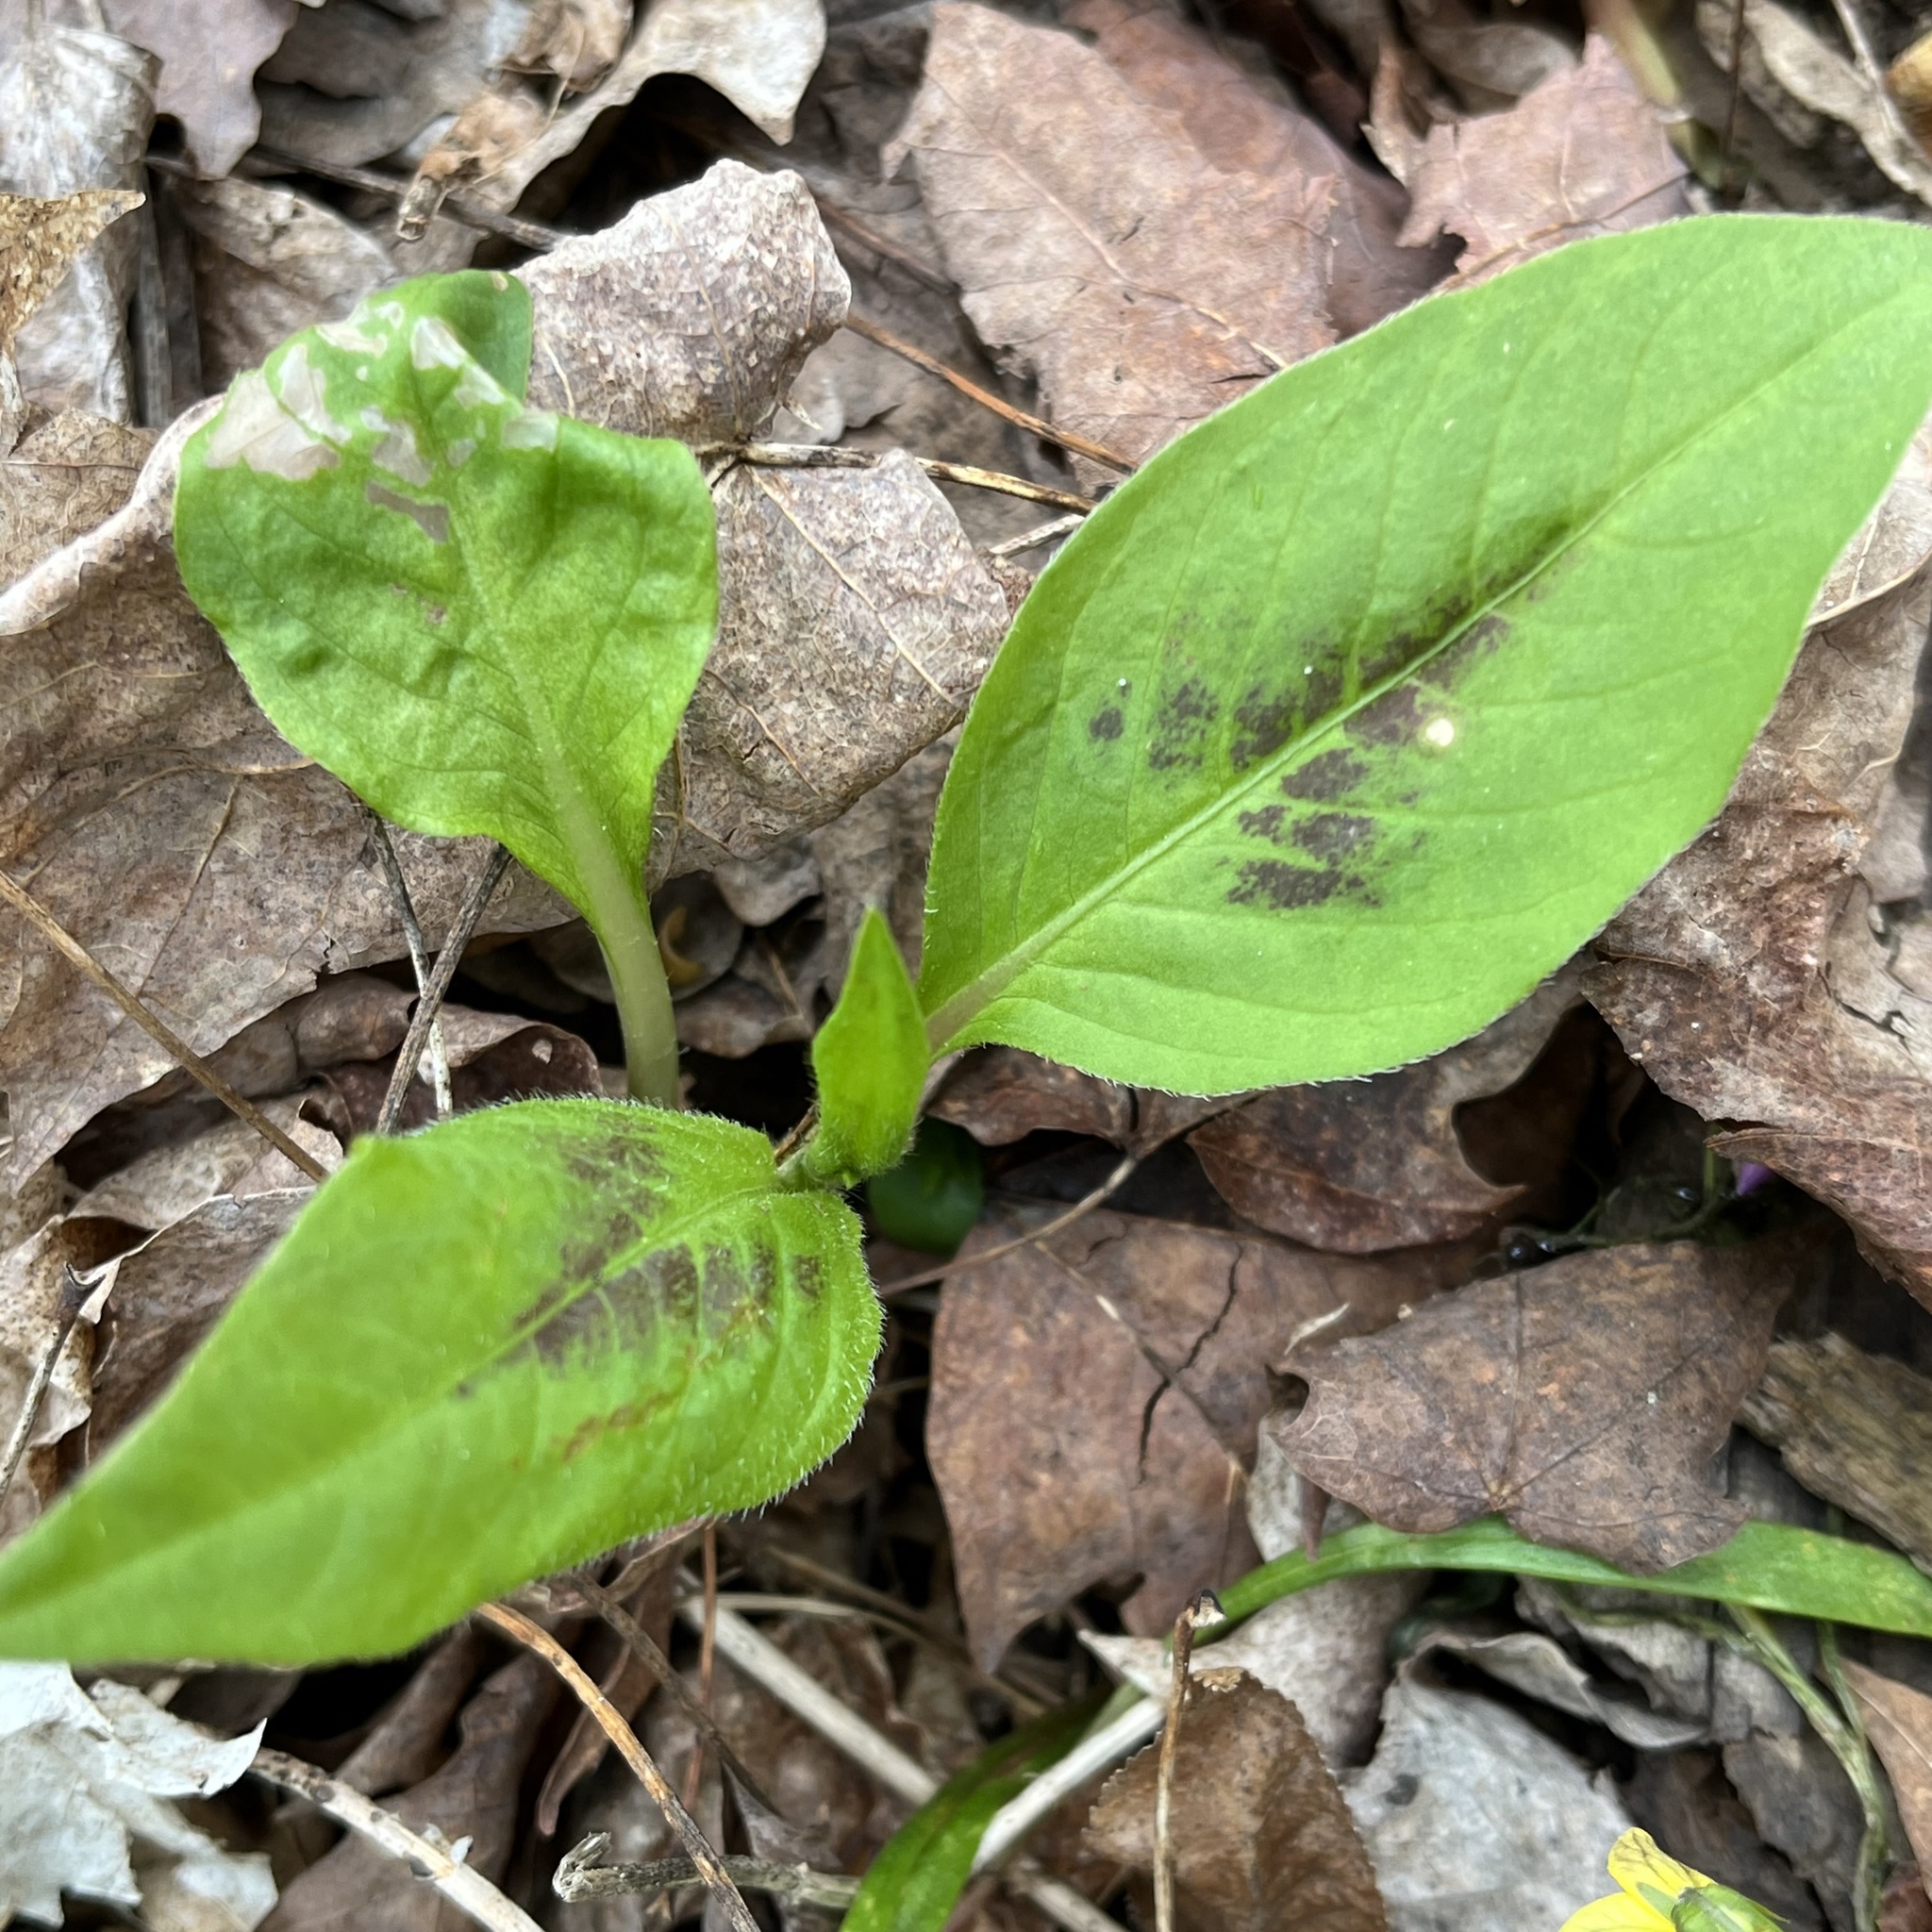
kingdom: Plantae
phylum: Tracheophyta
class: Magnoliopsida
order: Caryophyllales
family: Polygonaceae
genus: Persicaria
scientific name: Persicaria virginiana
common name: Jumpseed
